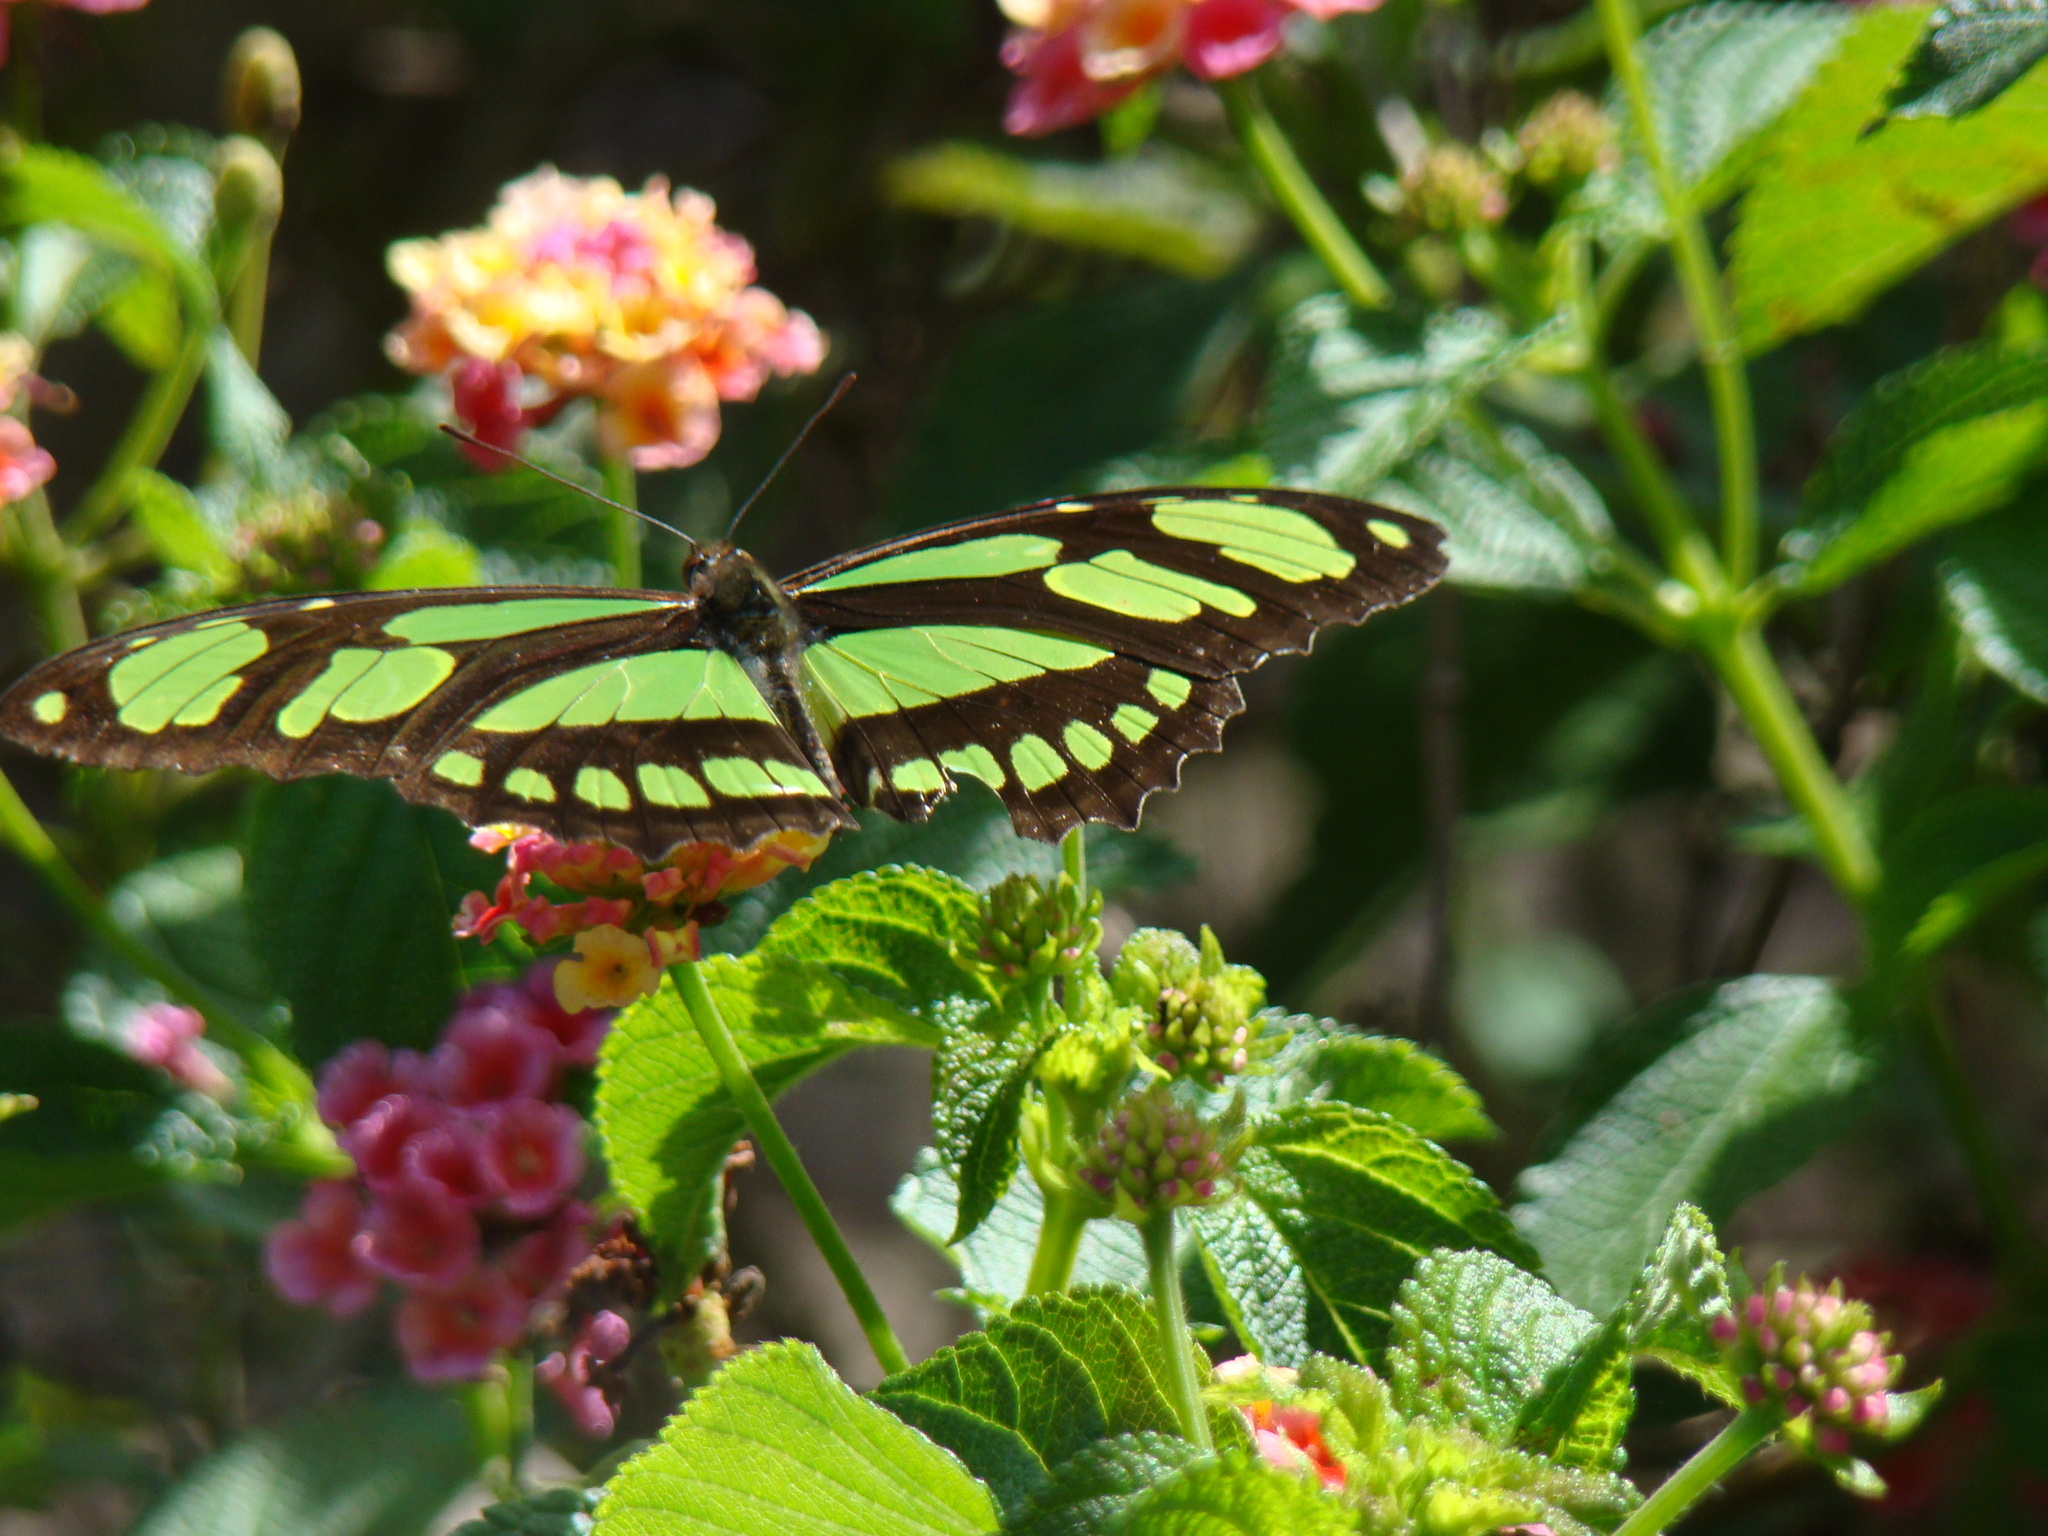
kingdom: Animalia
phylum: Arthropoda
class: Insecta
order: Lepidoptera
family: Nymphalidae
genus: Philaethria
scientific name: Philaethria dido
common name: Scarce bamboo page
